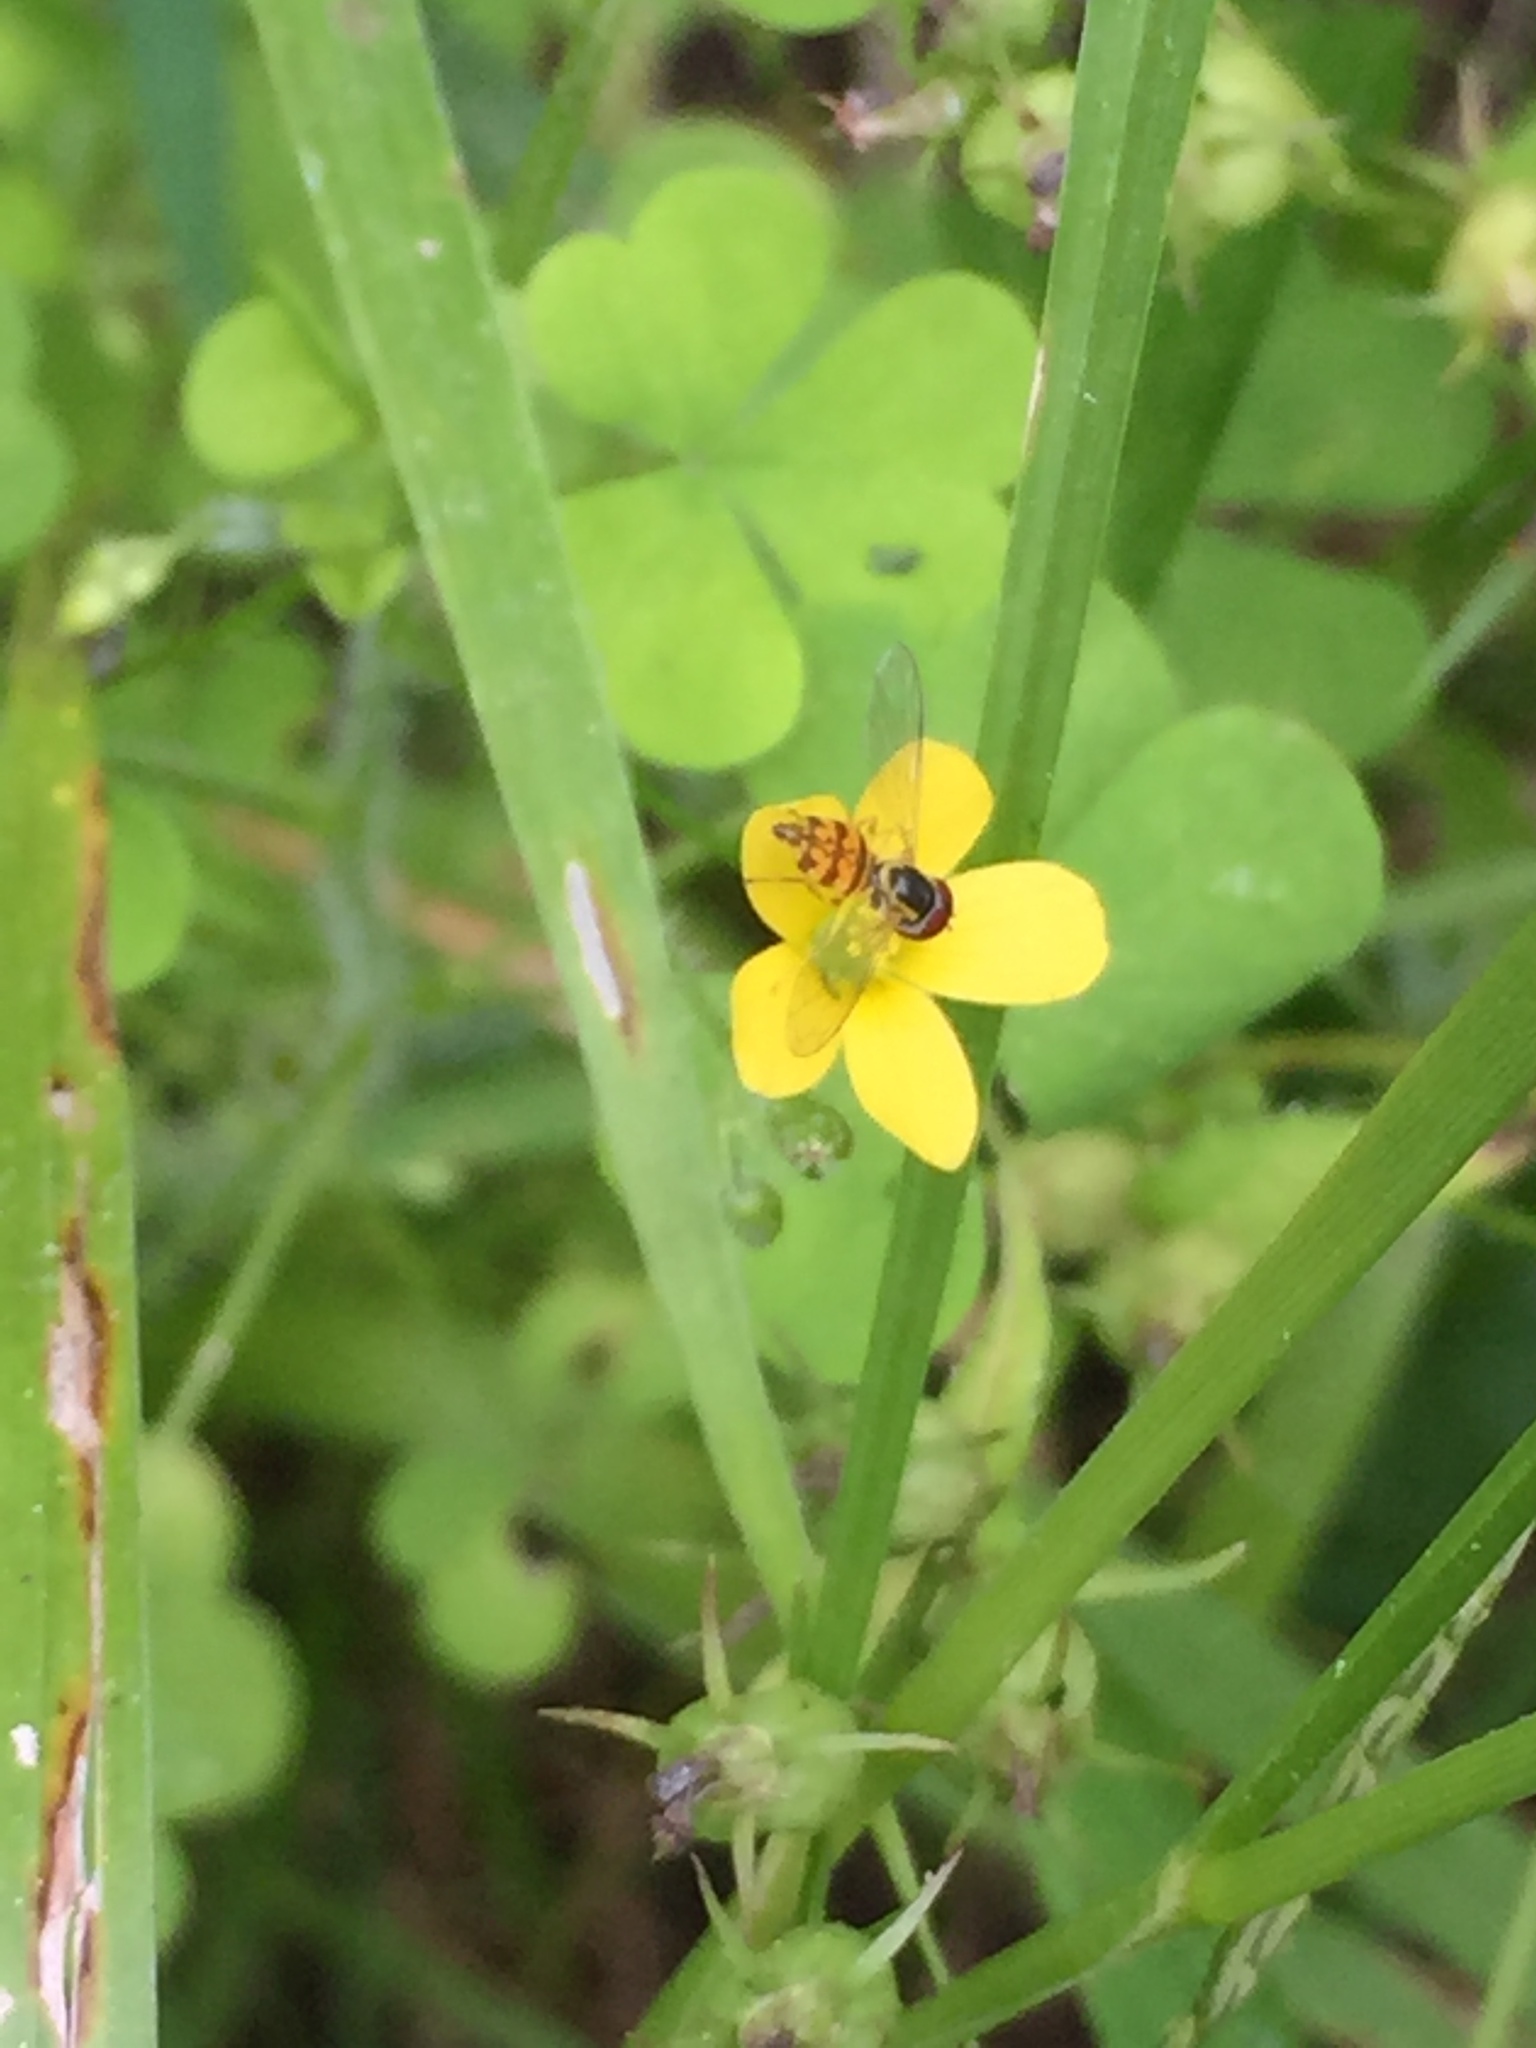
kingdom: Animalia
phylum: Arthropoda
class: Insecta
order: Diptera
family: Syrphidae
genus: Toxomerus
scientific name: Toxomerus geminatus
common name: Eastern calligrapher
